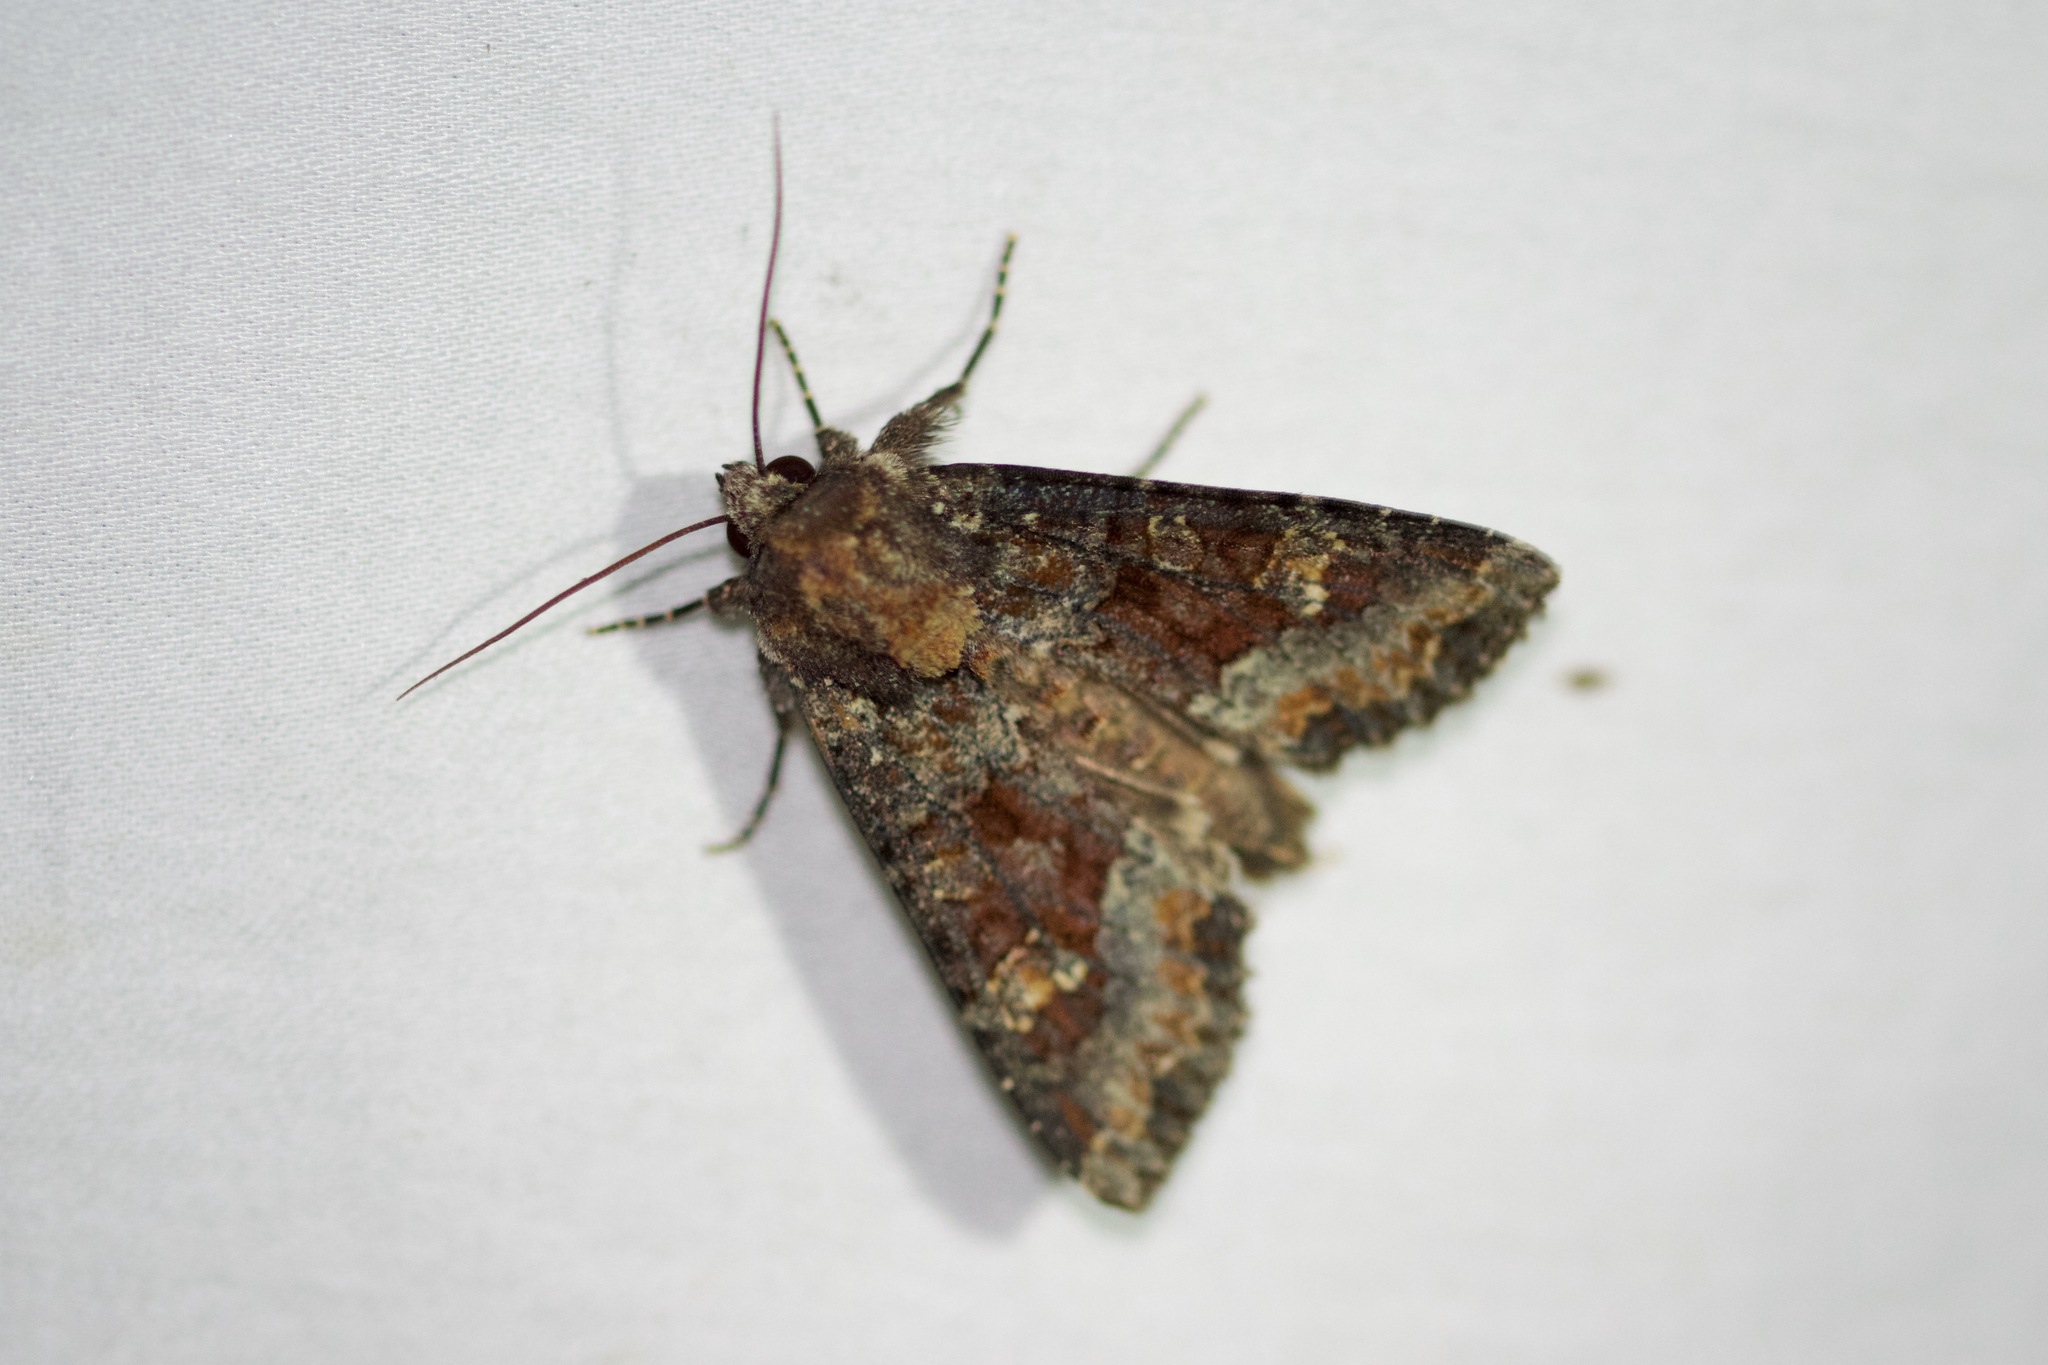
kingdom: Animalia
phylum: Arthropoda
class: Insecta
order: Lepidoptera
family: Noctuidae
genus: Apamea
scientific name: Apamea amputatrix
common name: Yellow-headed cutworm moth
